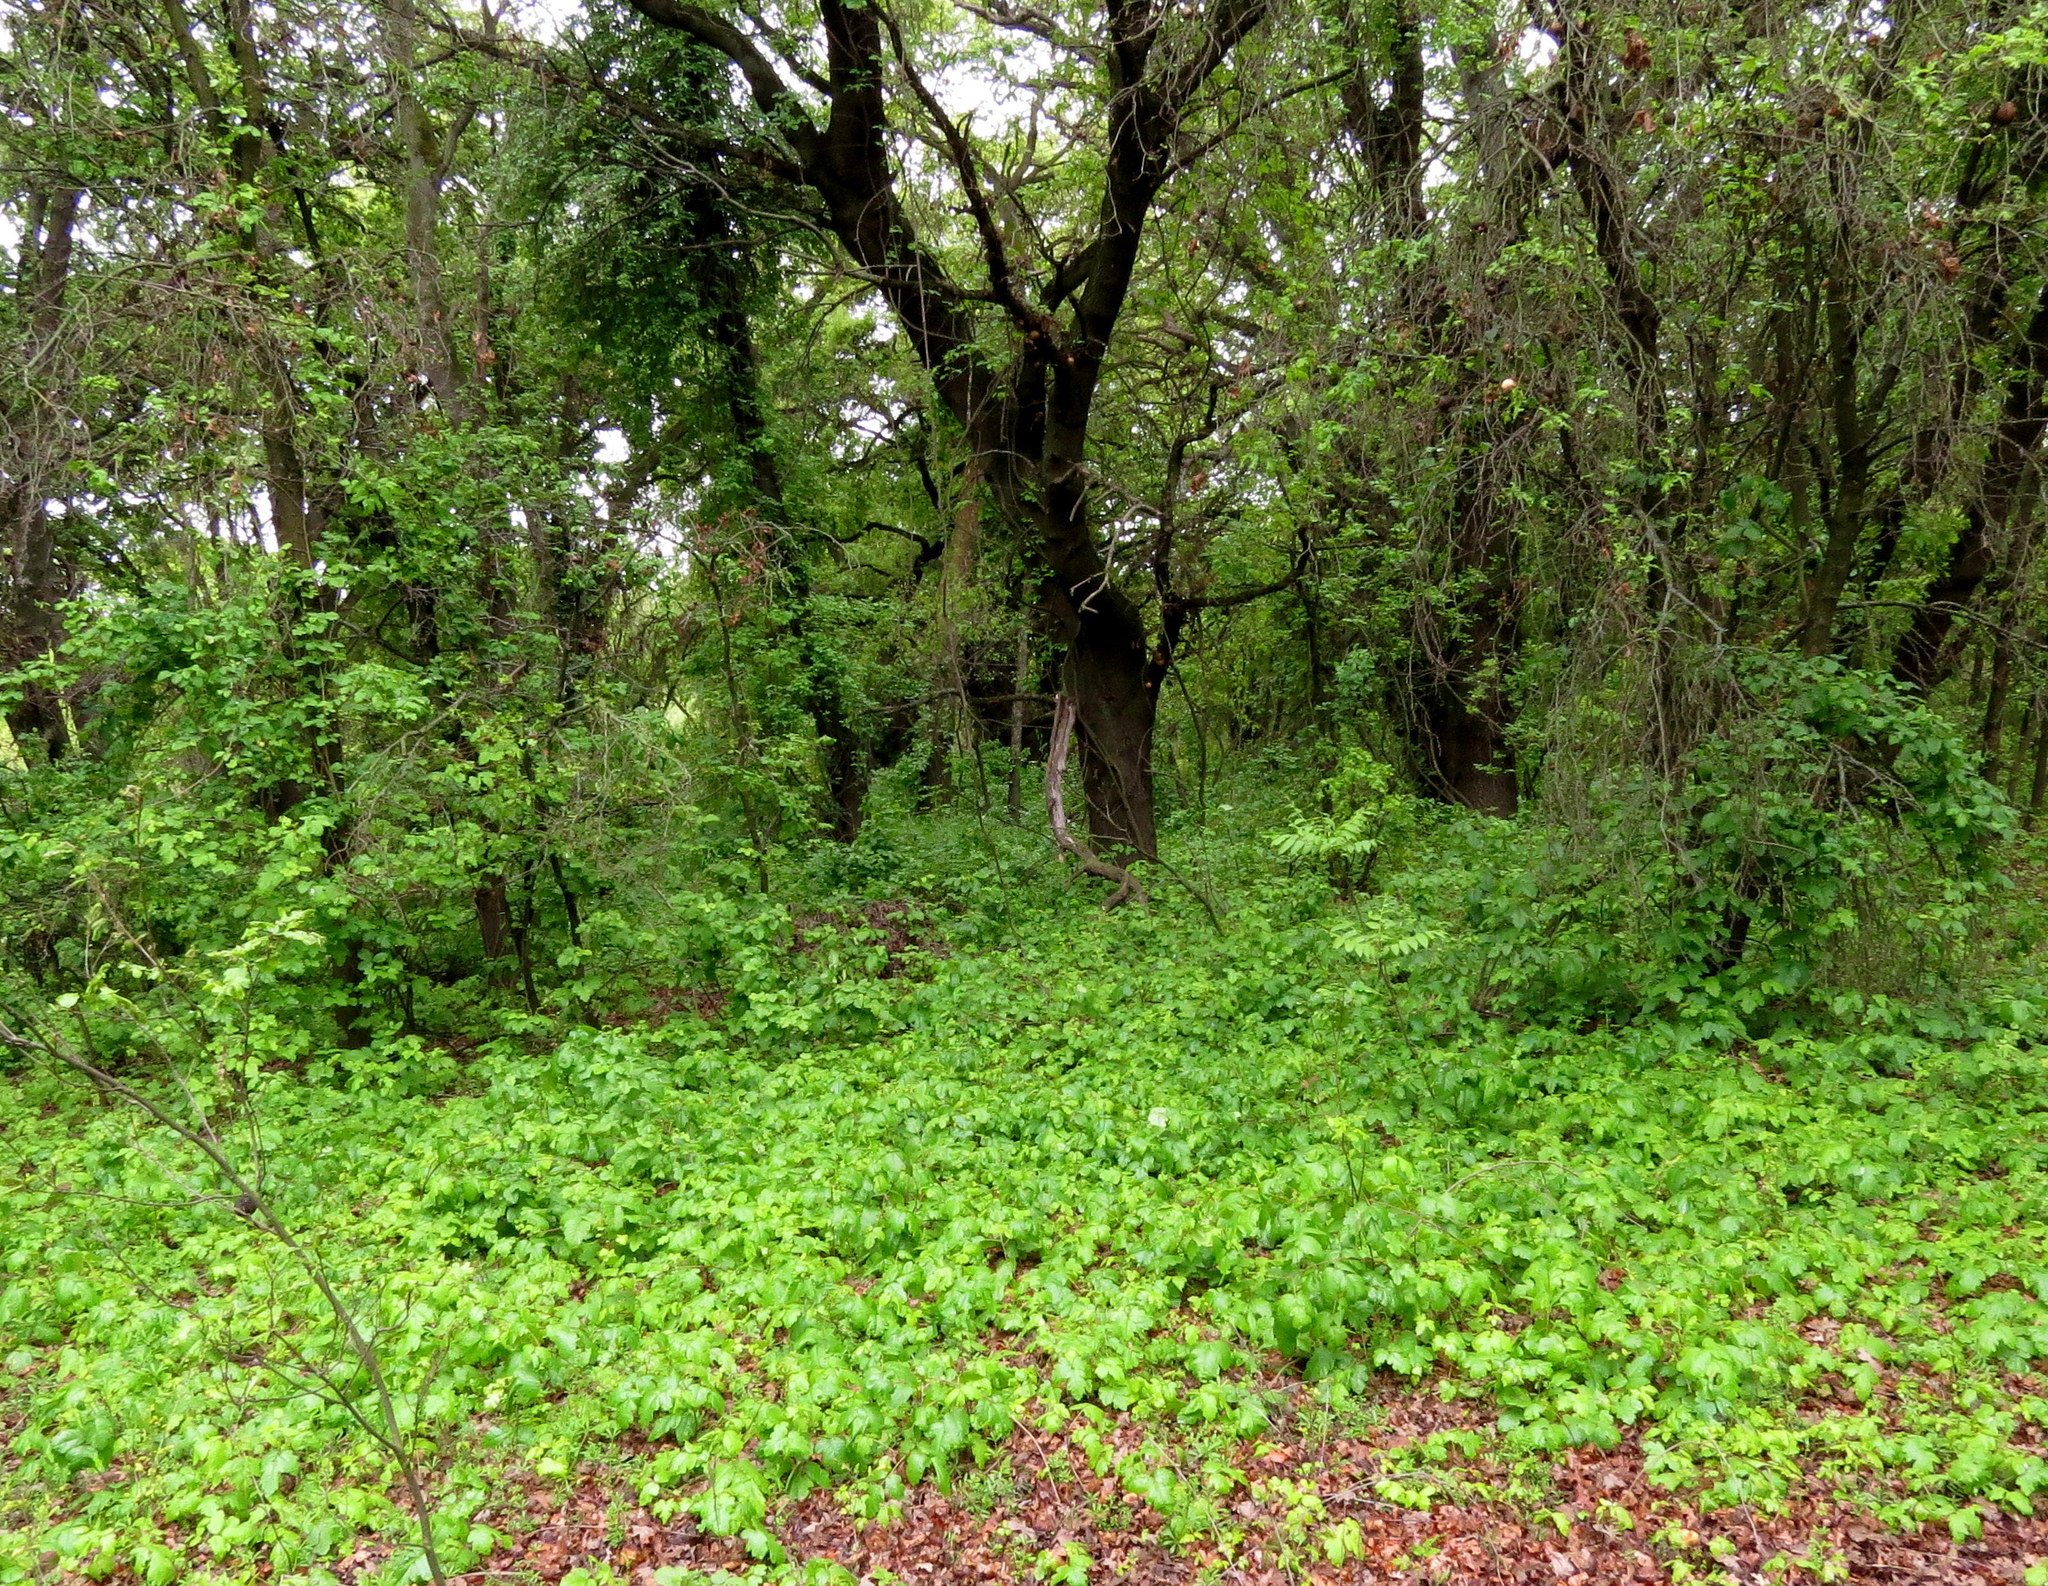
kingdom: Plantae
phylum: Tracheophyta
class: Magnoliopsida
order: Sapindales
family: Anacardiaceae
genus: Toxicodendron
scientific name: Toxicodendron diversilobum
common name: Pacific poison-oak
